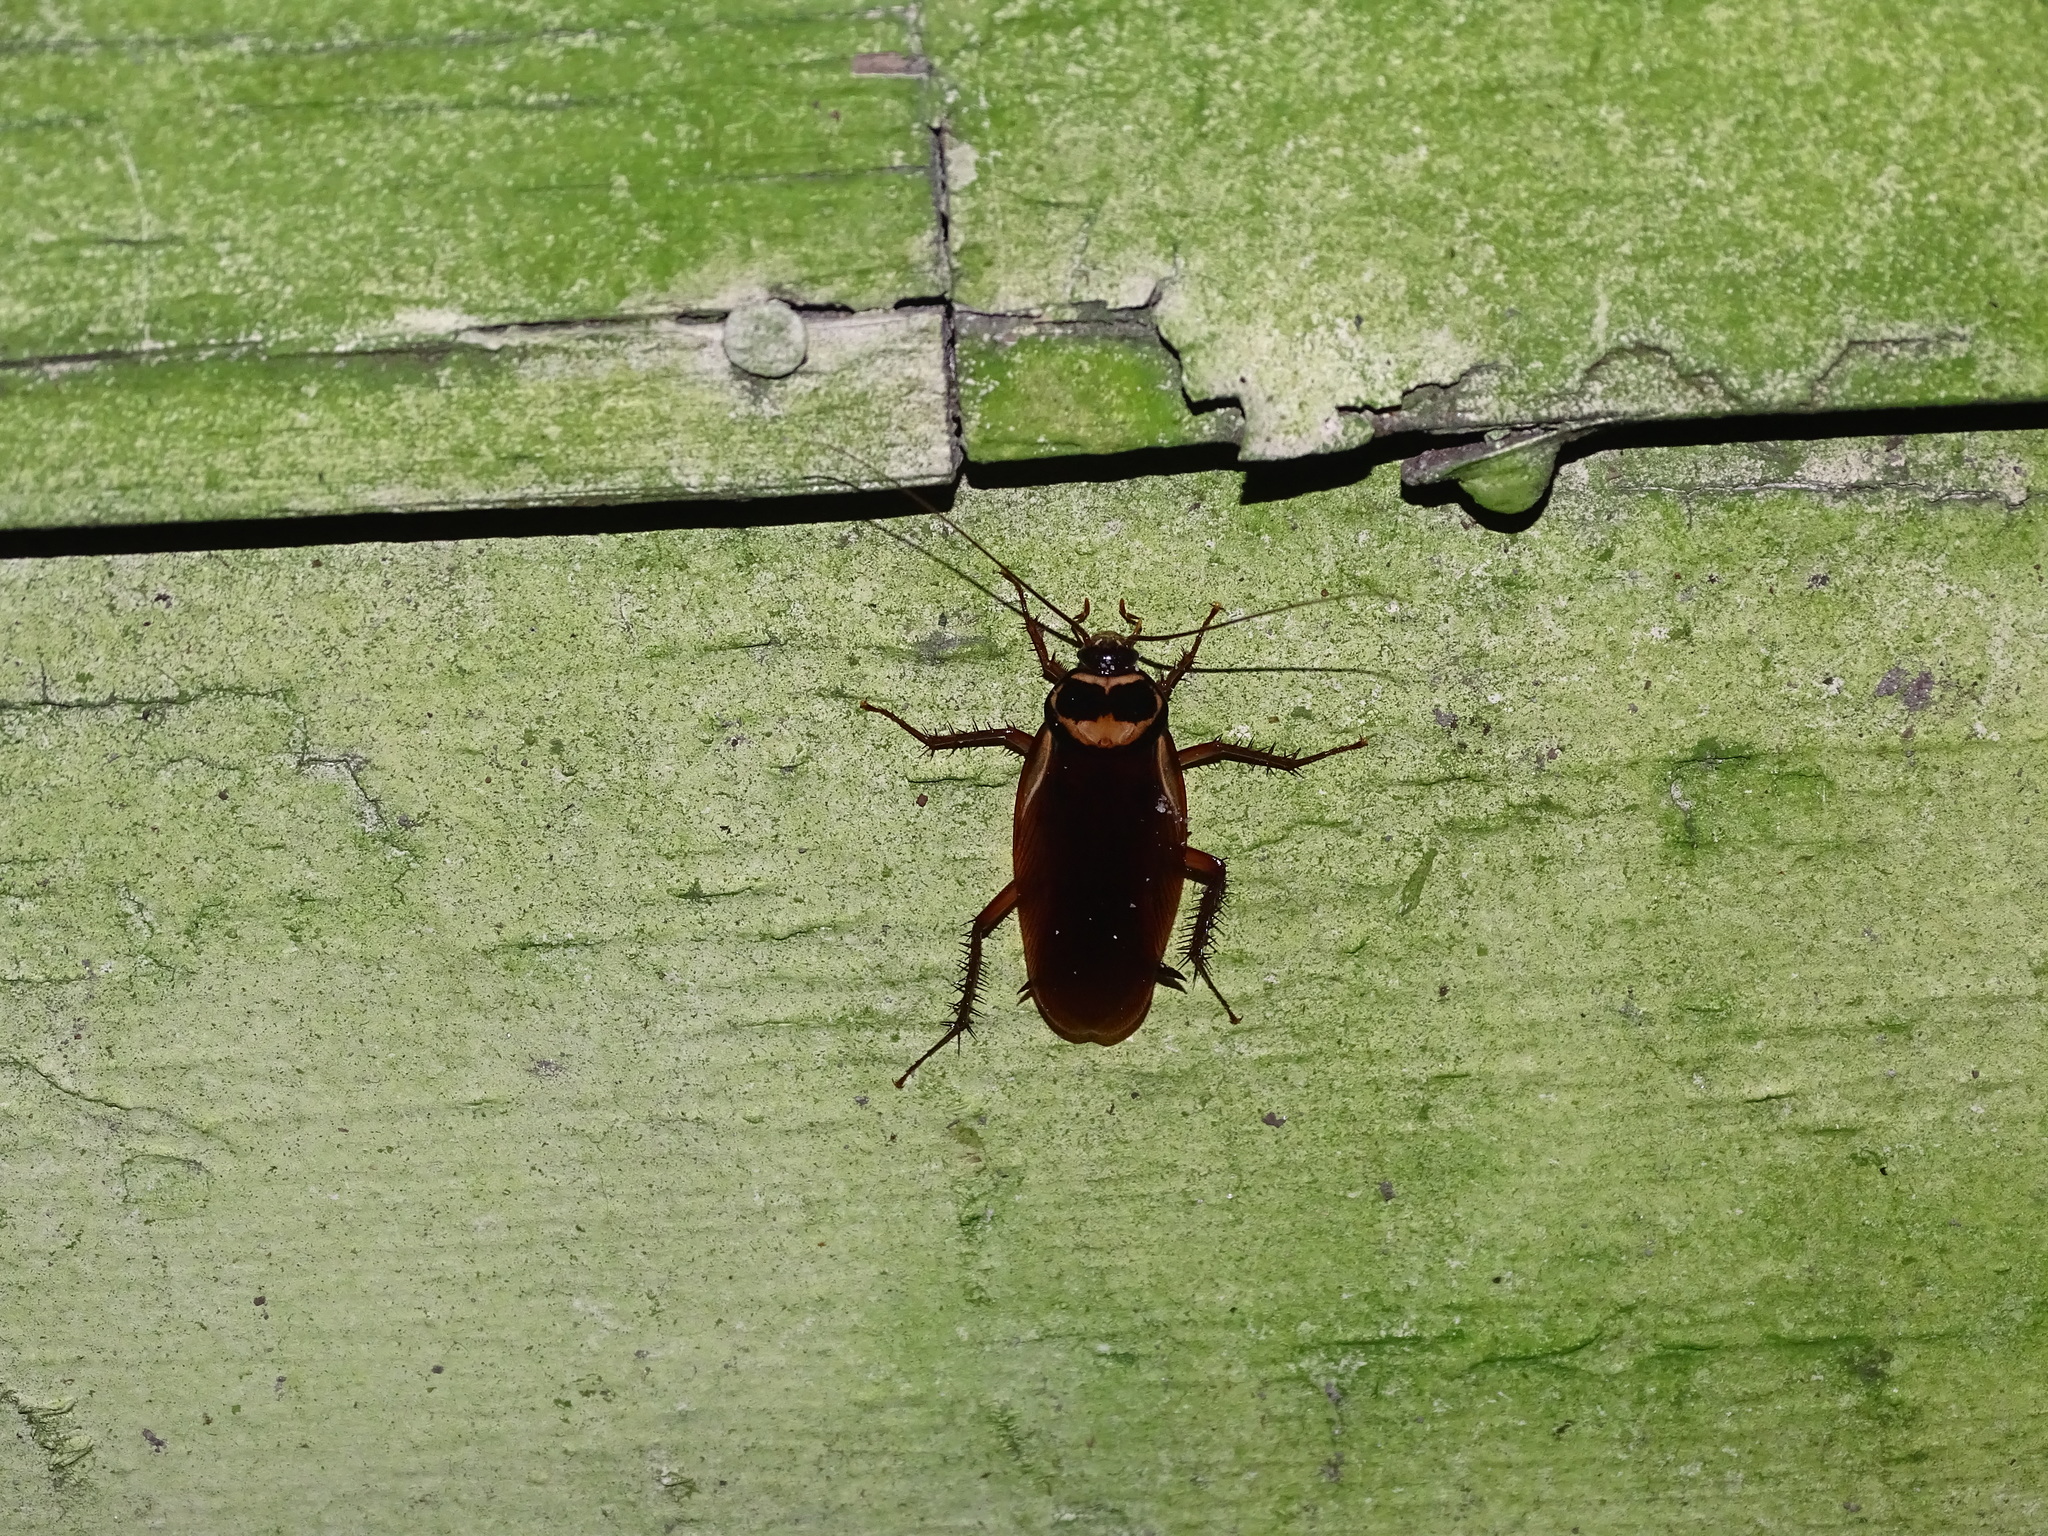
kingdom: Animalia
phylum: Arthropoda
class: Insecta
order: Blattodea
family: Blattidae
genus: Periplaneta
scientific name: Periplaneta australasiae
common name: Australian cockroach
